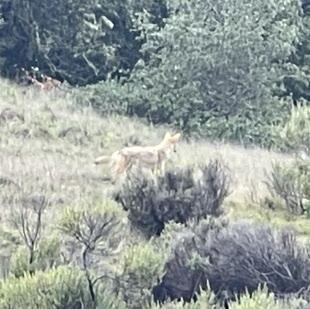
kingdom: Animalia
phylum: Chordata
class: Mammalia
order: Carnivora
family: Canidae
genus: Canis
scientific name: Canis latrans
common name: Coyote
